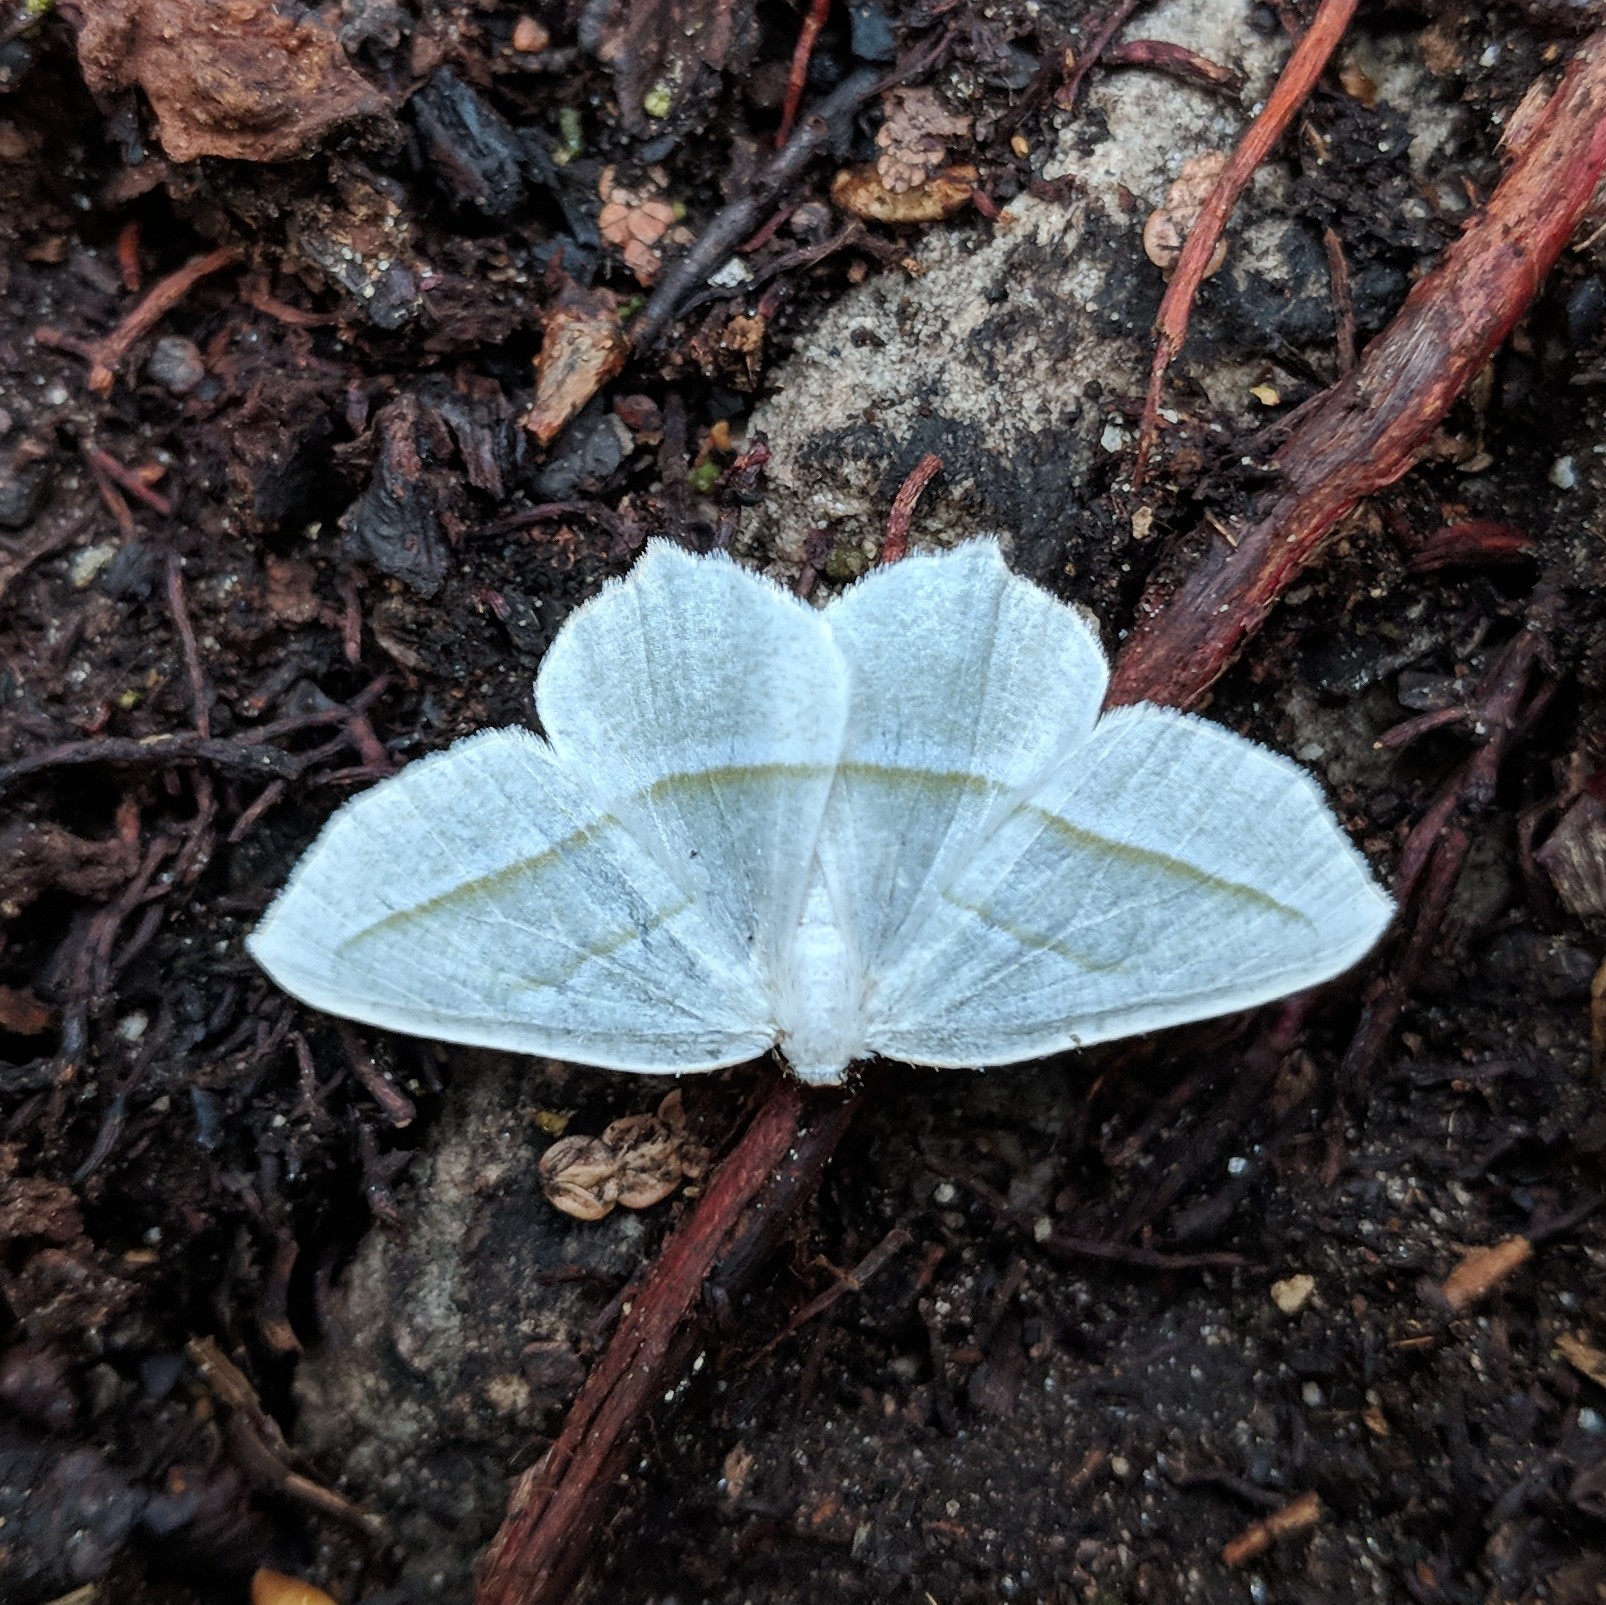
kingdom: Animalia
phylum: Arthropoda
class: Insecta
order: Lepidoptera
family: Geometridae
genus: Campaea
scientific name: Campaea perlata
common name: Fringed looper
